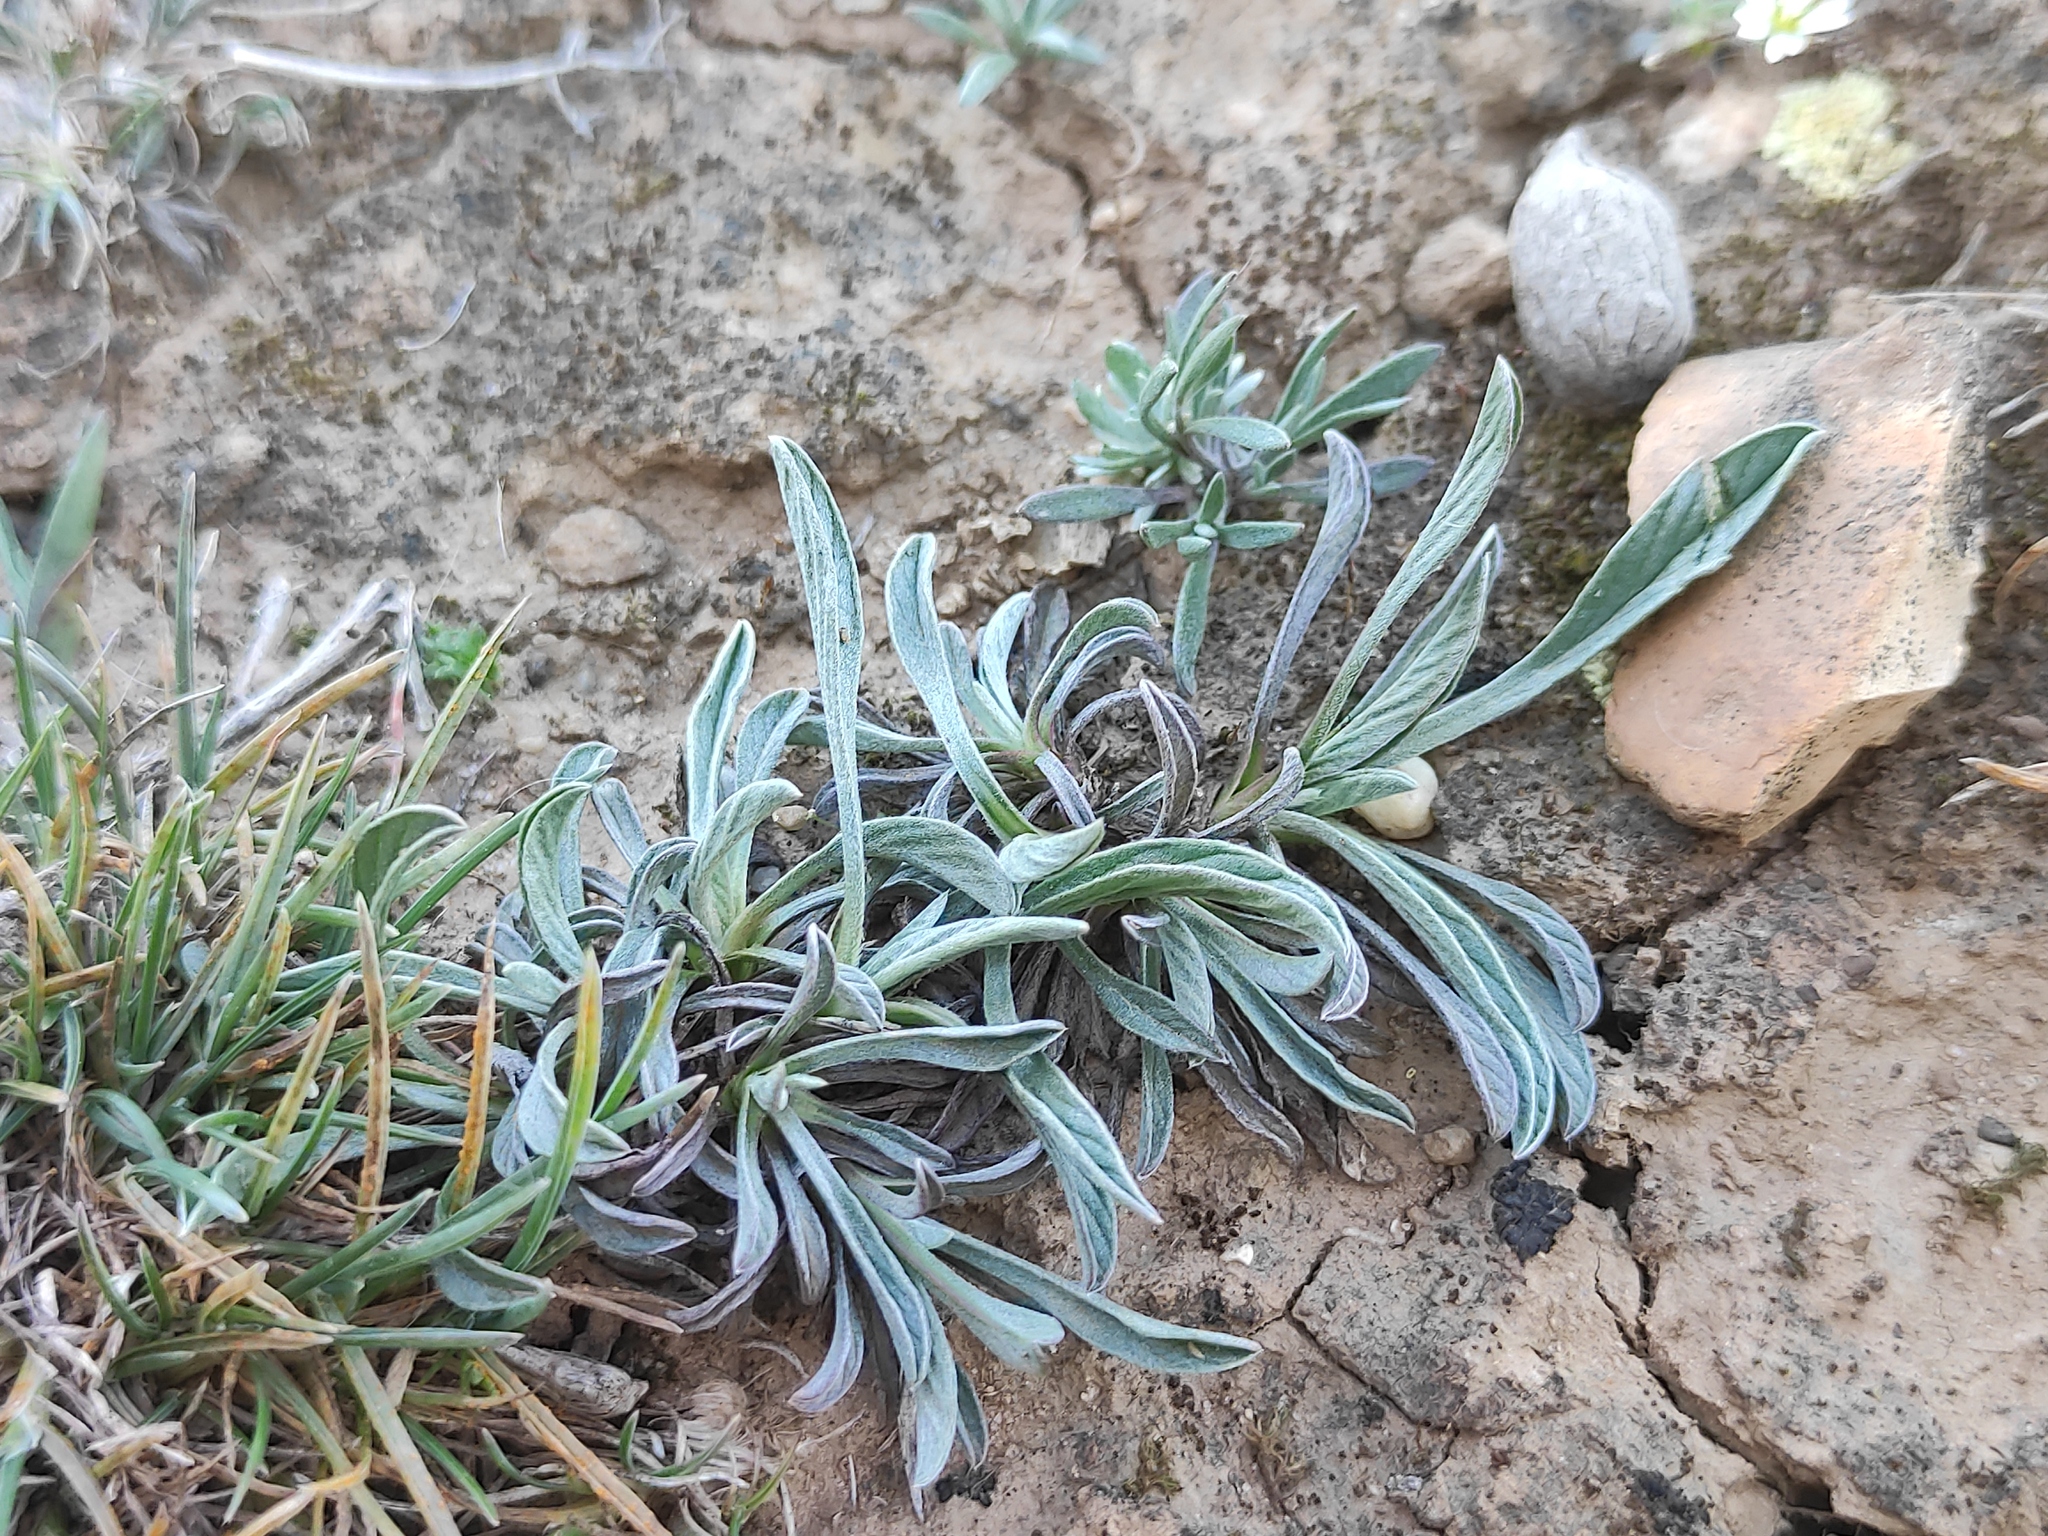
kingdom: Plantae
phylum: Tracheophyta
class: Magnoliopsida
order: Solanales
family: Convolvulaceae
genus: Convolvulus
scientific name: Convolvulus lineatus
